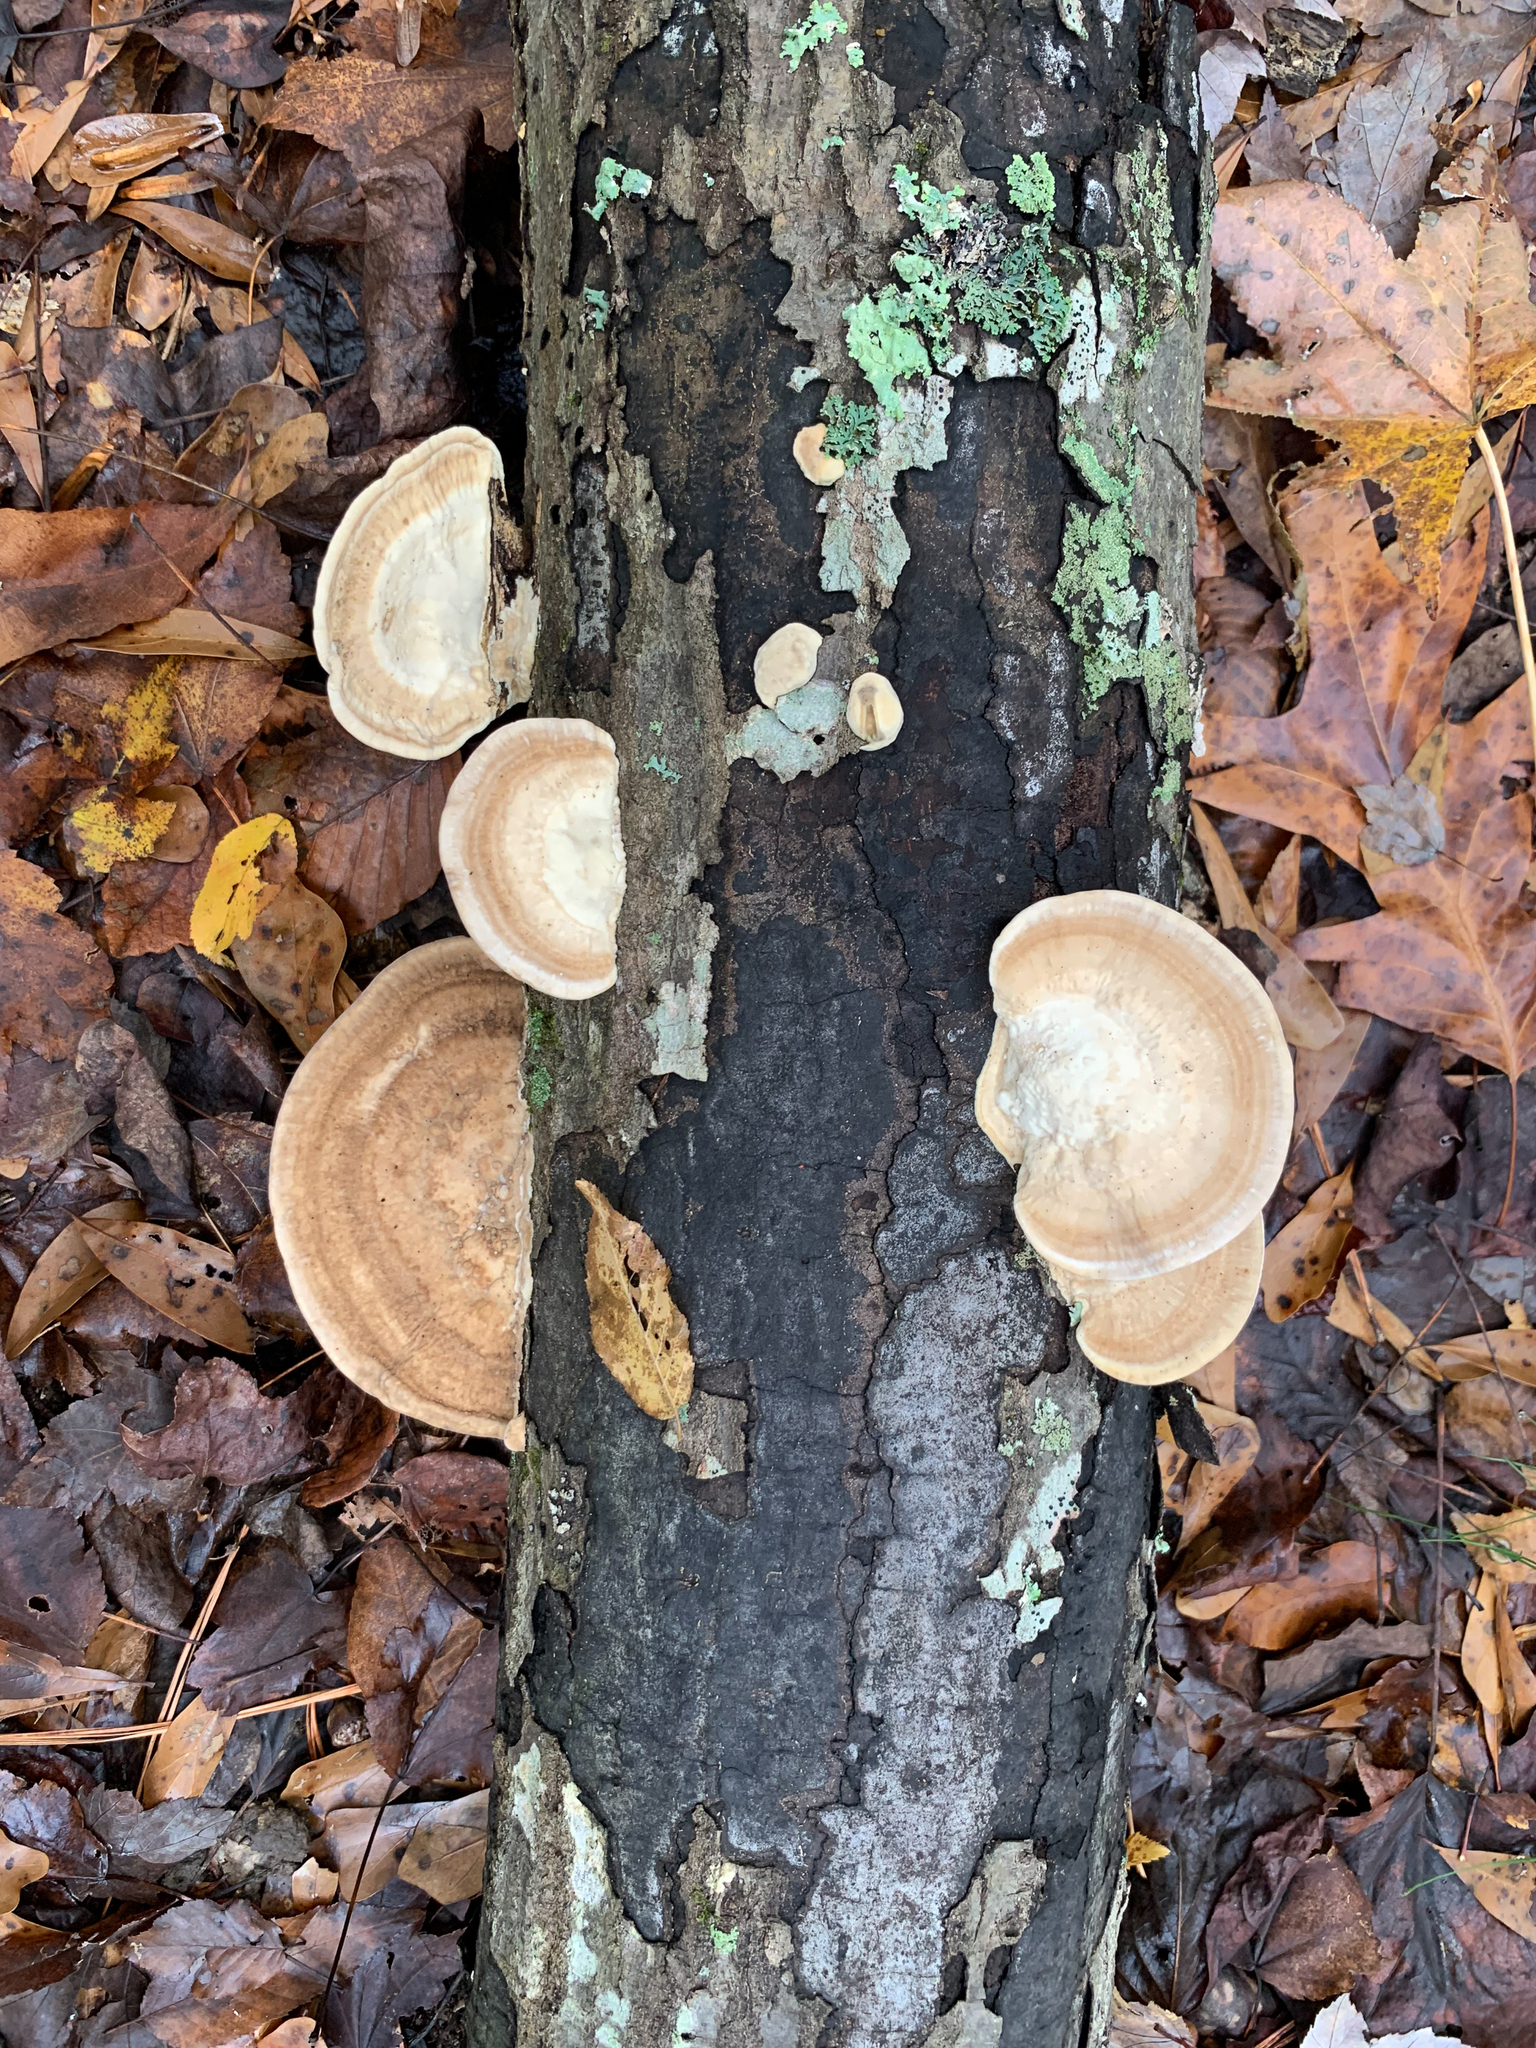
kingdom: Fungi
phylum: Basidiomycota
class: Agaricomycetes
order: Polyporales
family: Polyporaceae
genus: Trametes
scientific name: Trametes lactinea
